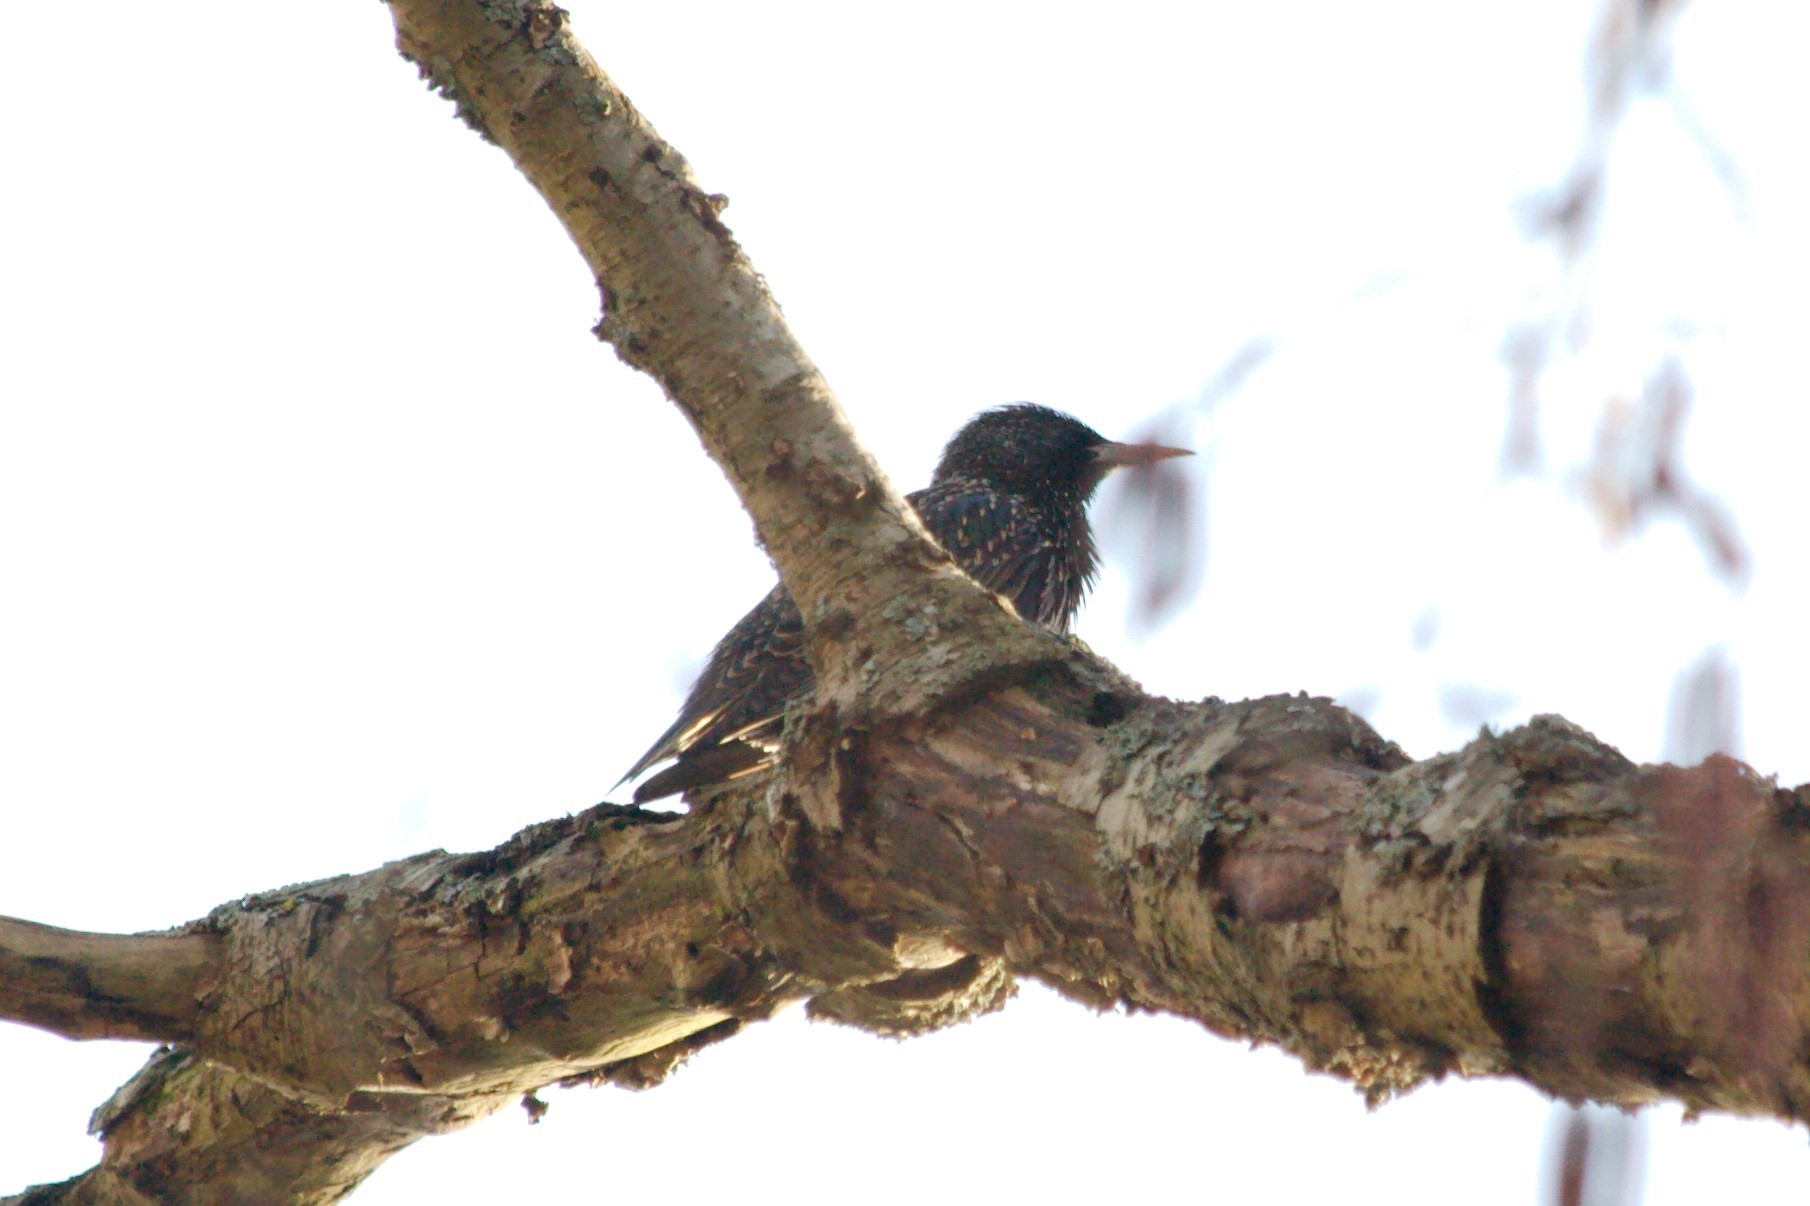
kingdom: Animalia
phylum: Chordata
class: Aves
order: Passeriformes
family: Sturnidae
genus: Sturnus
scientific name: Sturnus vulgaris
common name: Common starling
